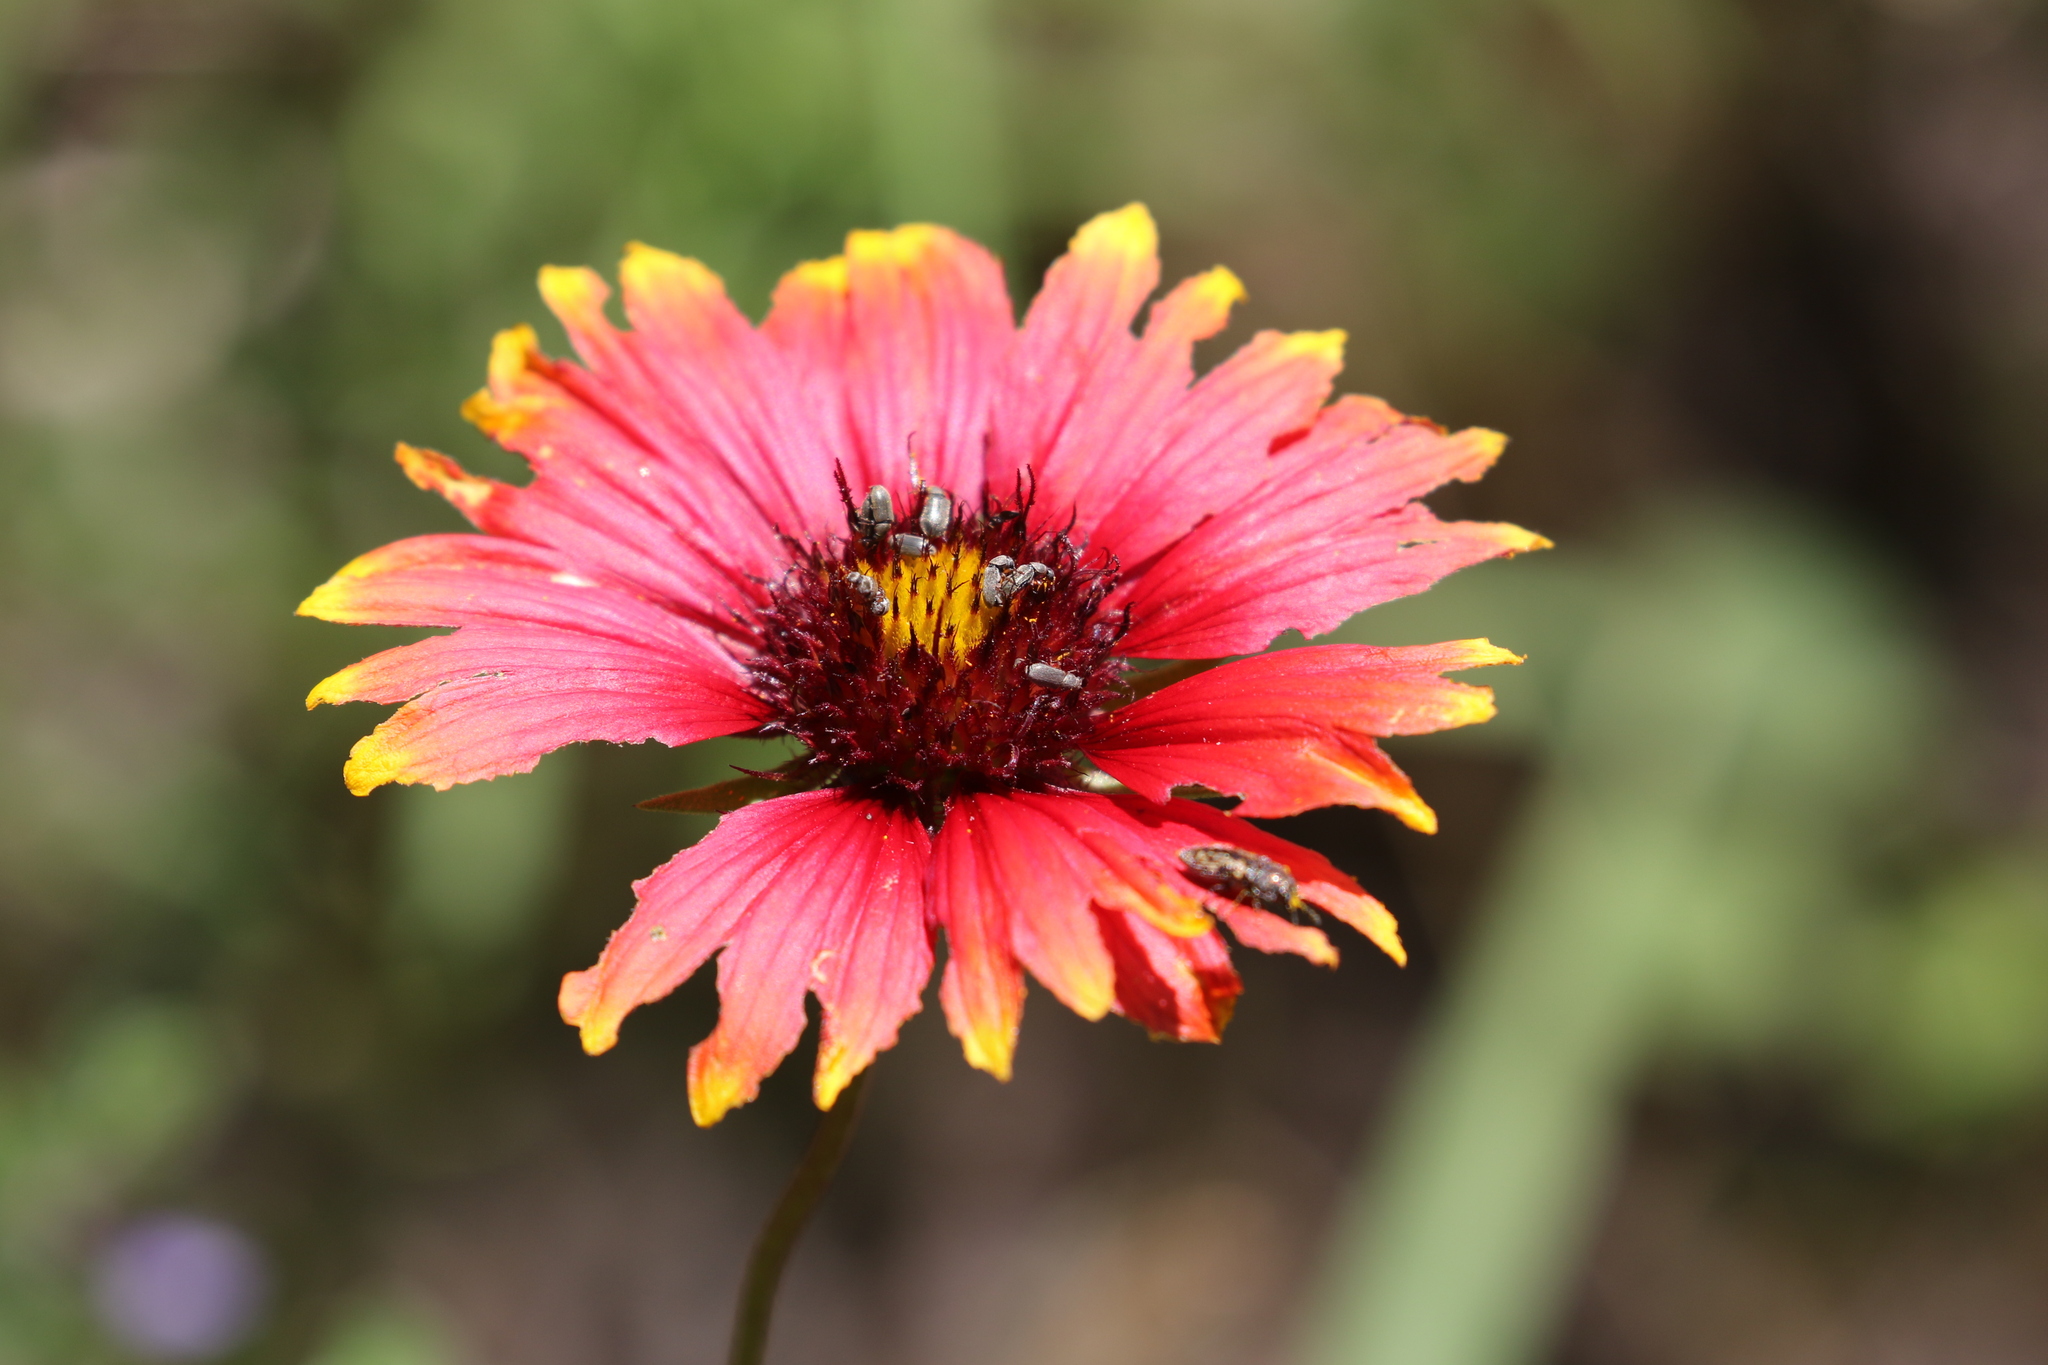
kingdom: Plantae
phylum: Tracheophyta
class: Magnoliopsida
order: Asterales
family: Asteraceae
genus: Gaillardia
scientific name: Gaillardia pulchella
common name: Firewheel
